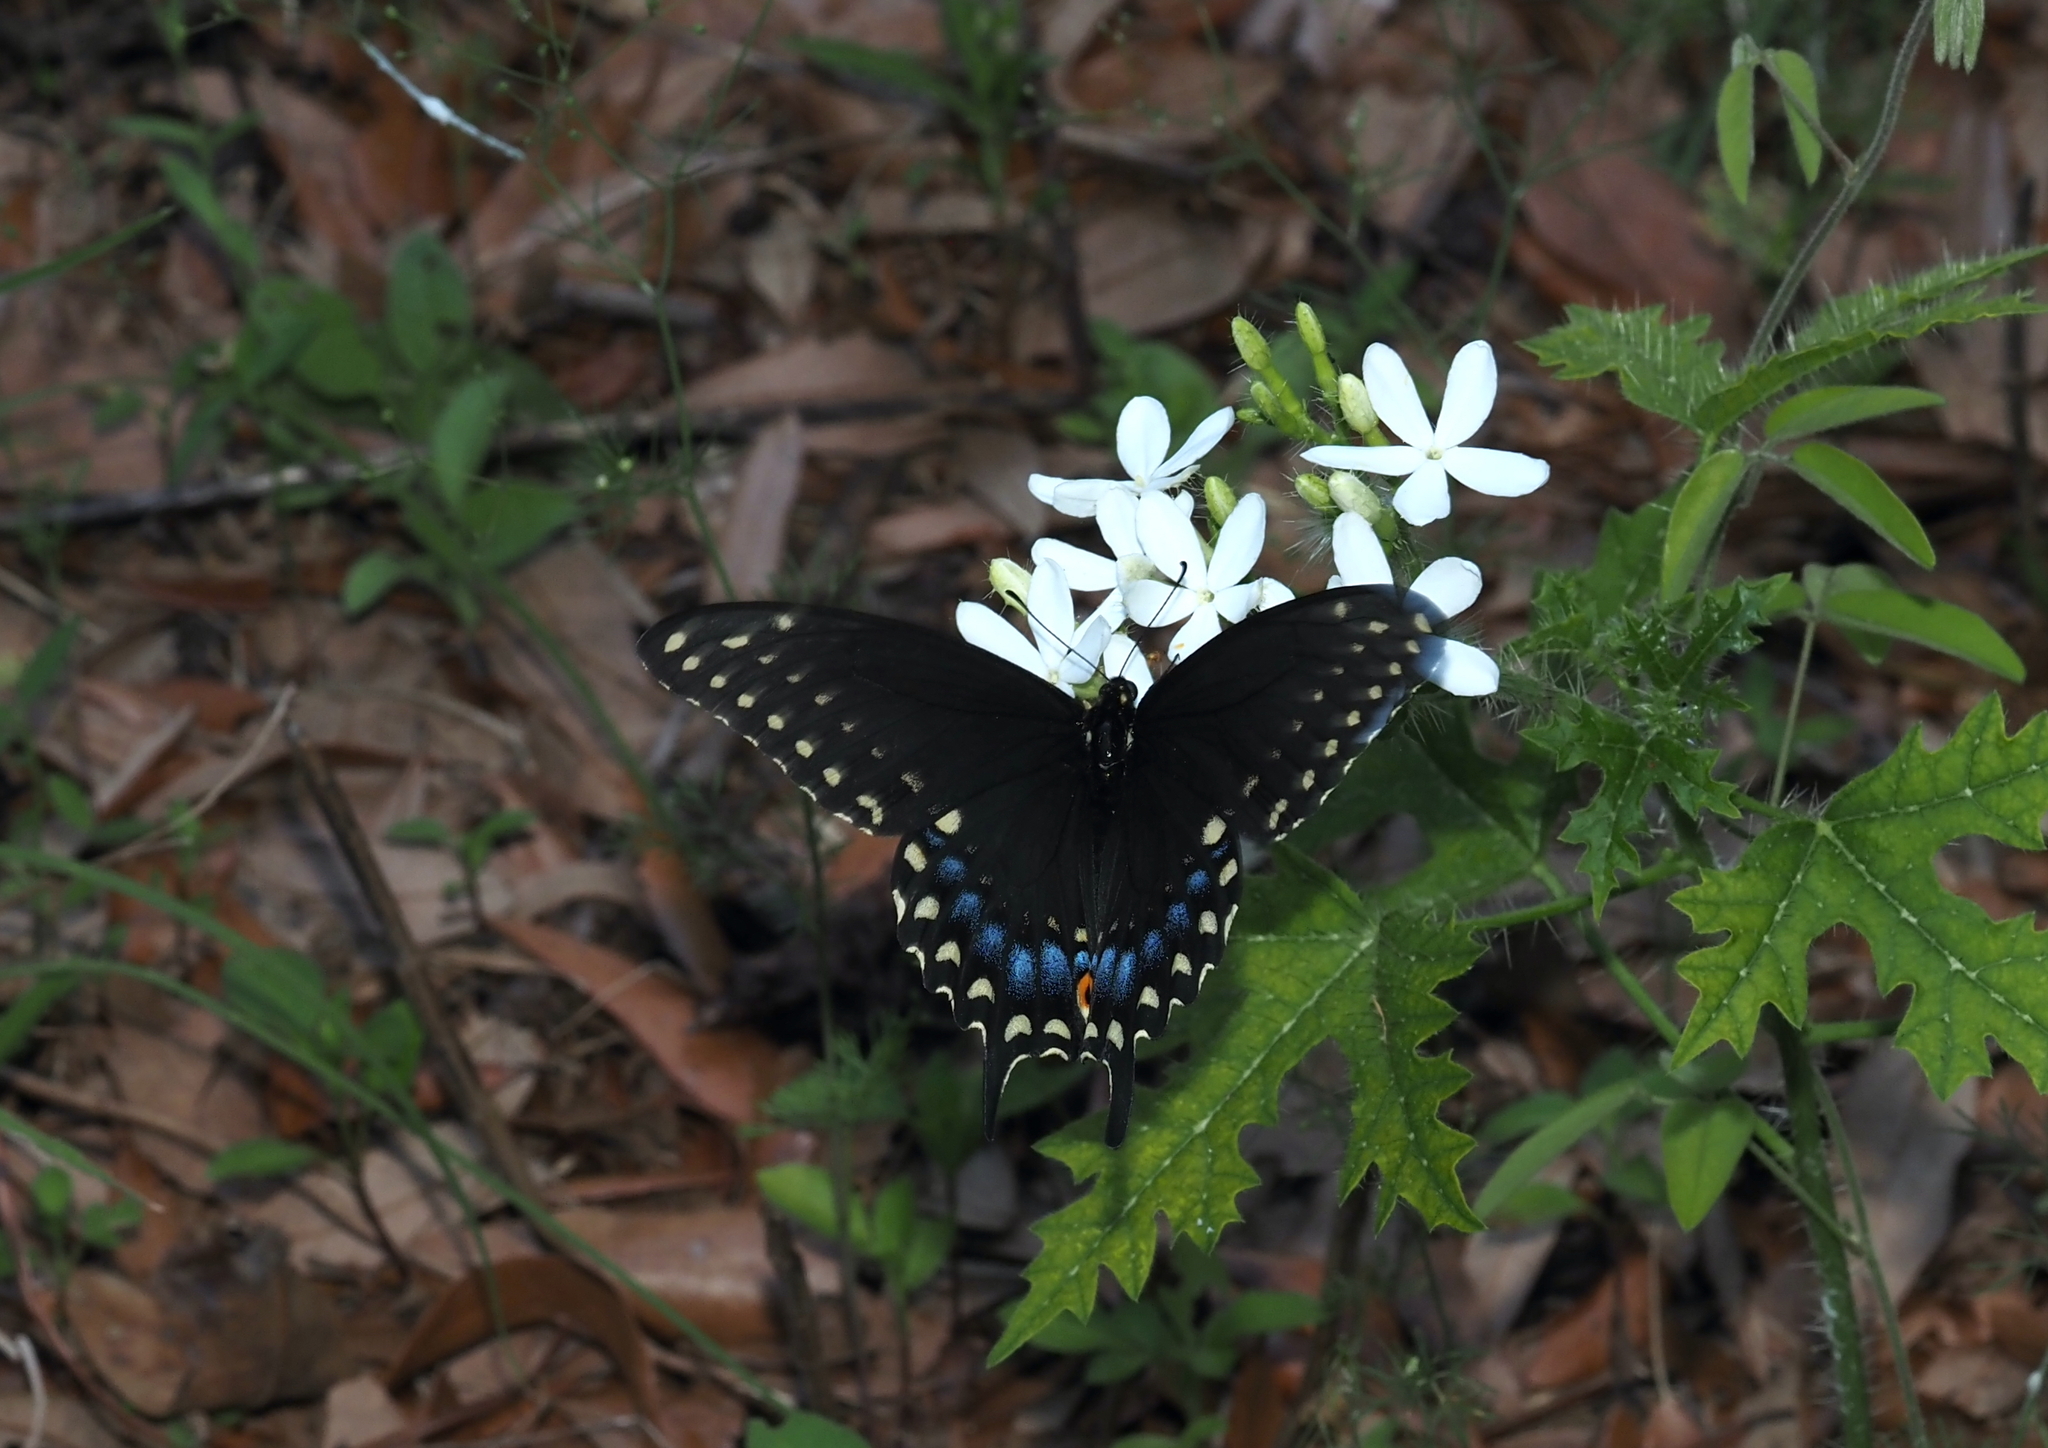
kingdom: Animalia
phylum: Arthropoda
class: Insecta
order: Lepidoptera
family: Papilionidae
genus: Papilio
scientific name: Papilio polyxenes
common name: Black swallowtail
